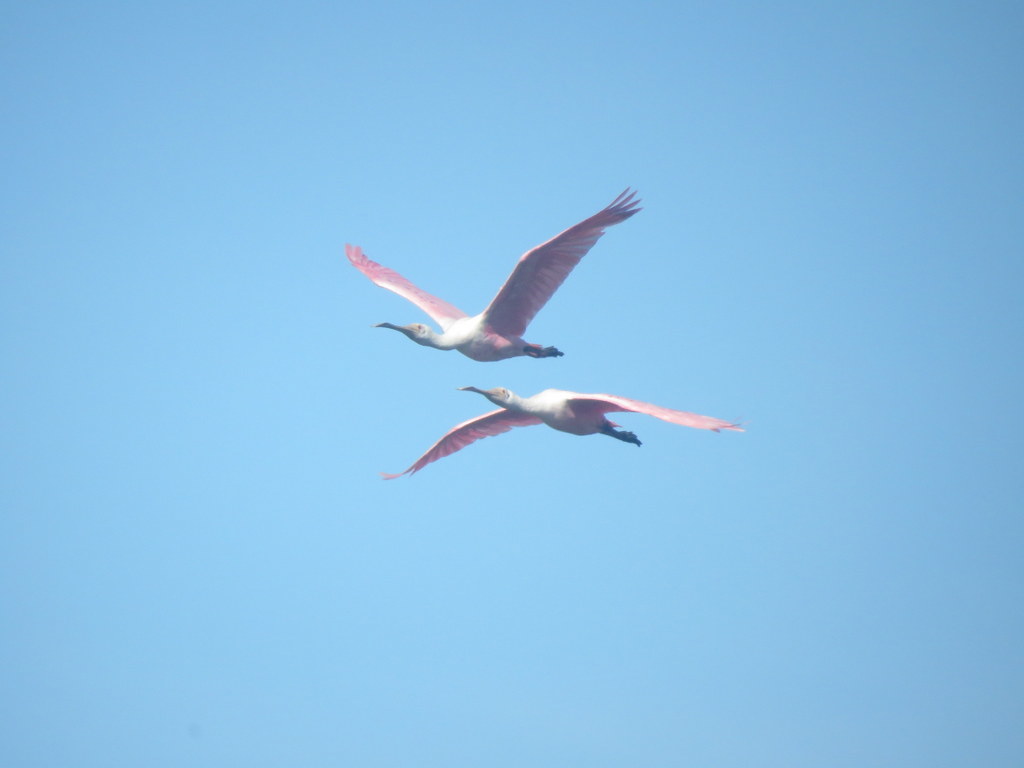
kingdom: Animalia
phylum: Chordata
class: Aves
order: Pelecaniformes
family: Threskiornithidae
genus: Platalea
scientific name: Platalea ajaja
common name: Roseate spoonbill
